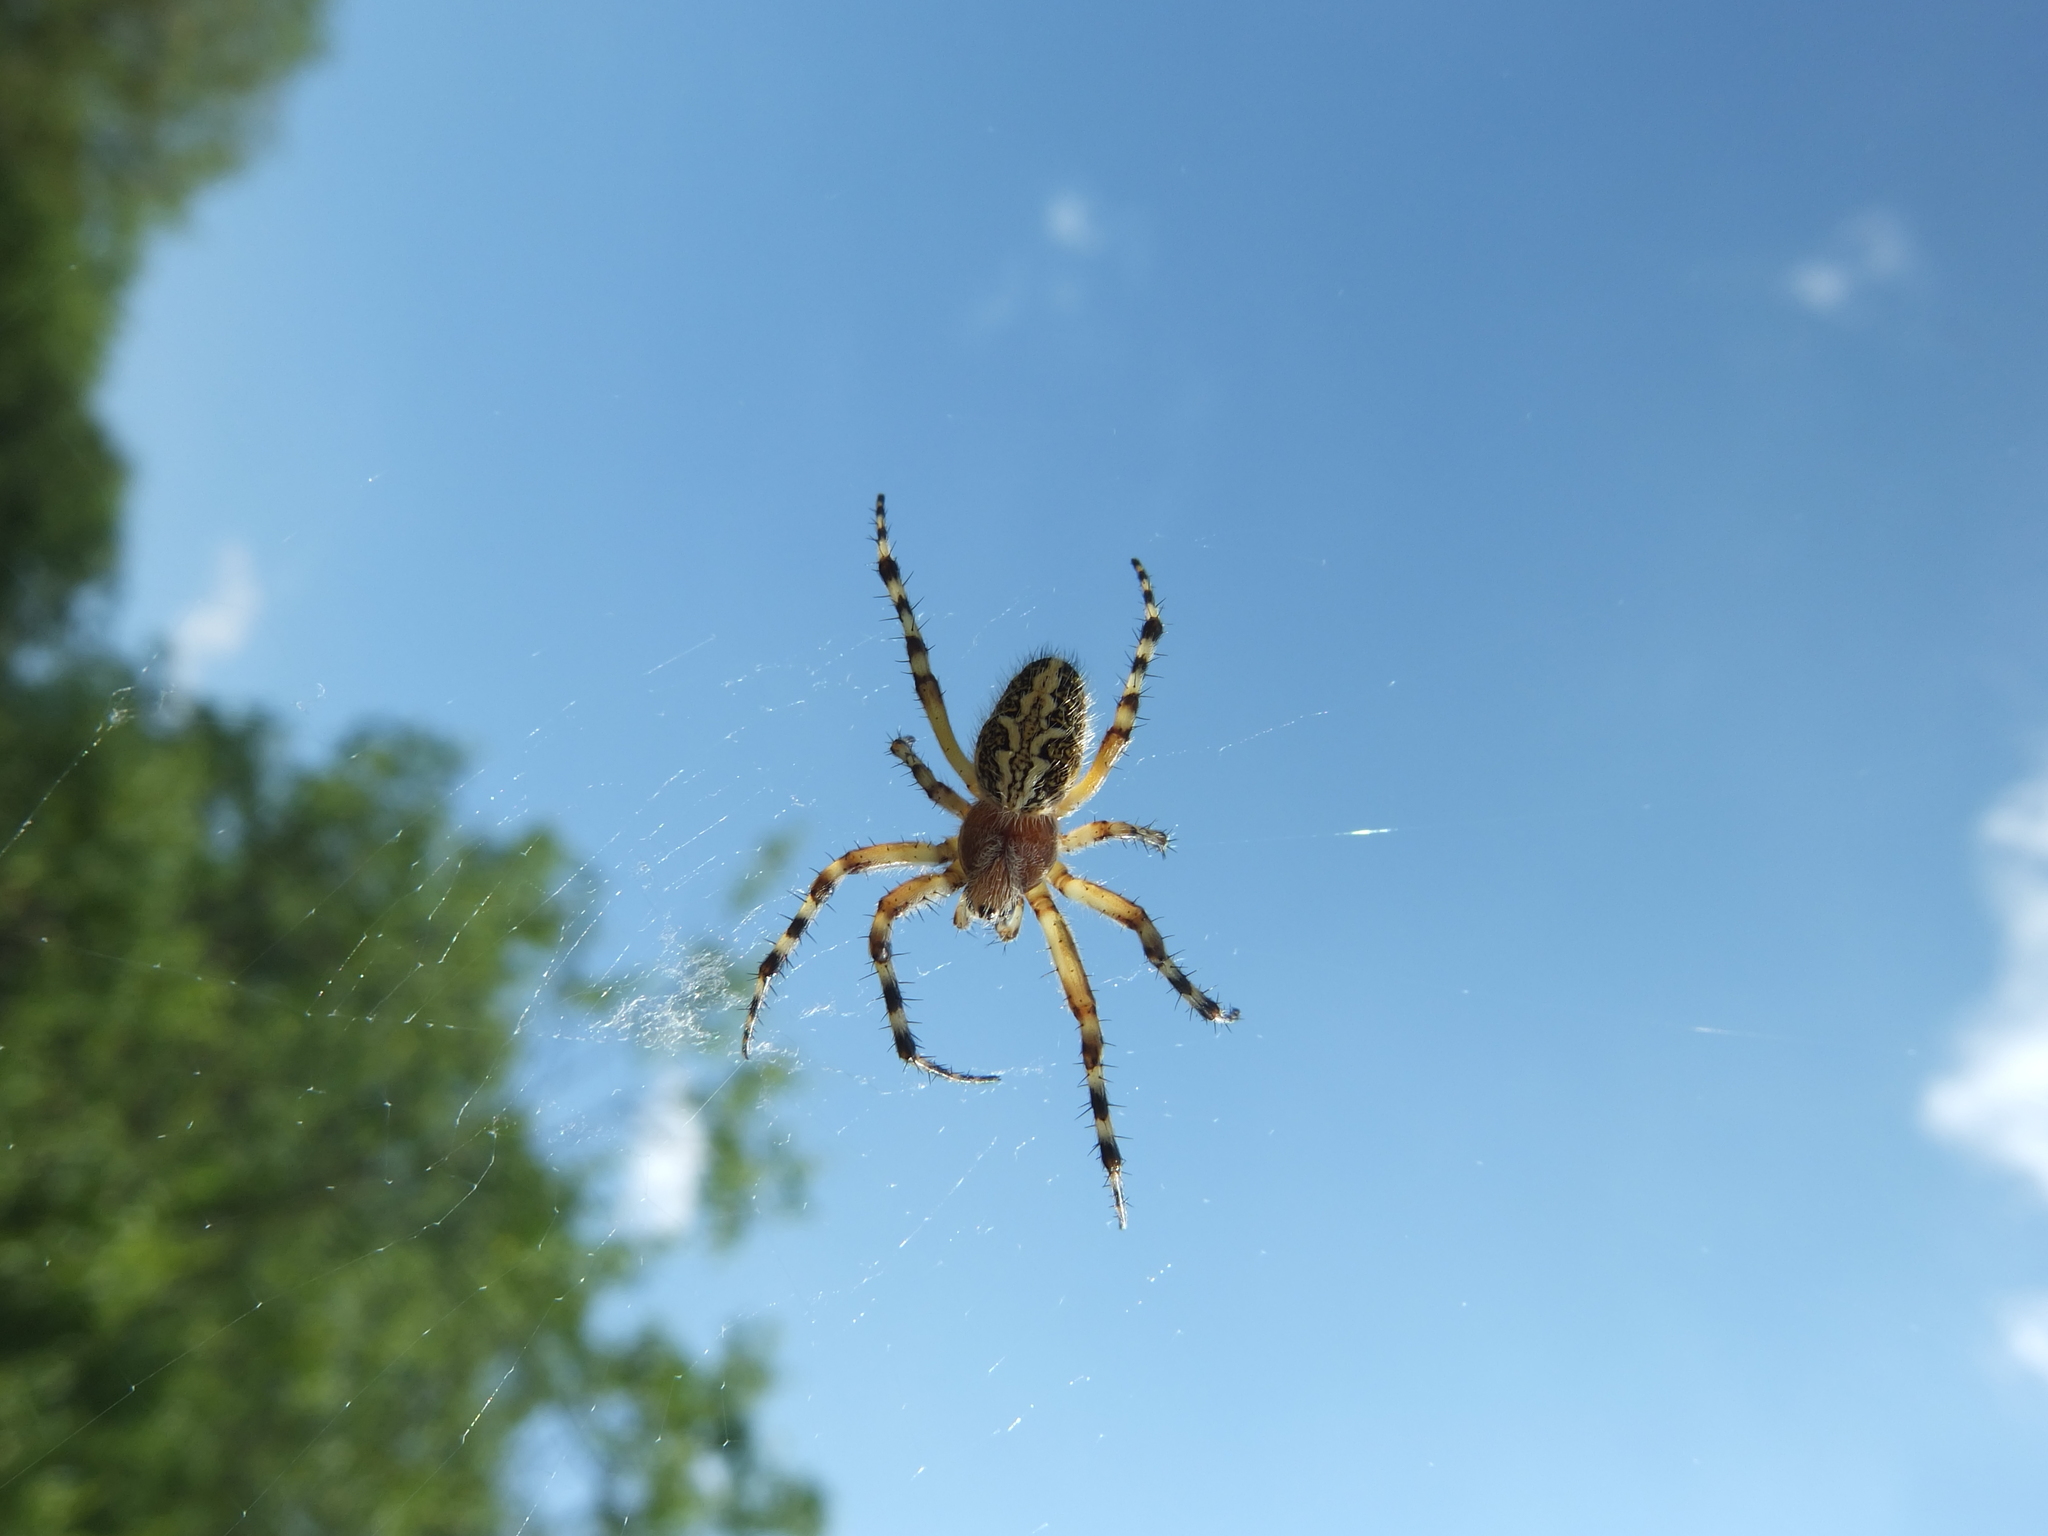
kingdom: Animalia
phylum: Arthropoda
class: Arachnida
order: Araneae
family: Araneidae
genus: Aculepeira
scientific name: Aculepeira ceropegia
